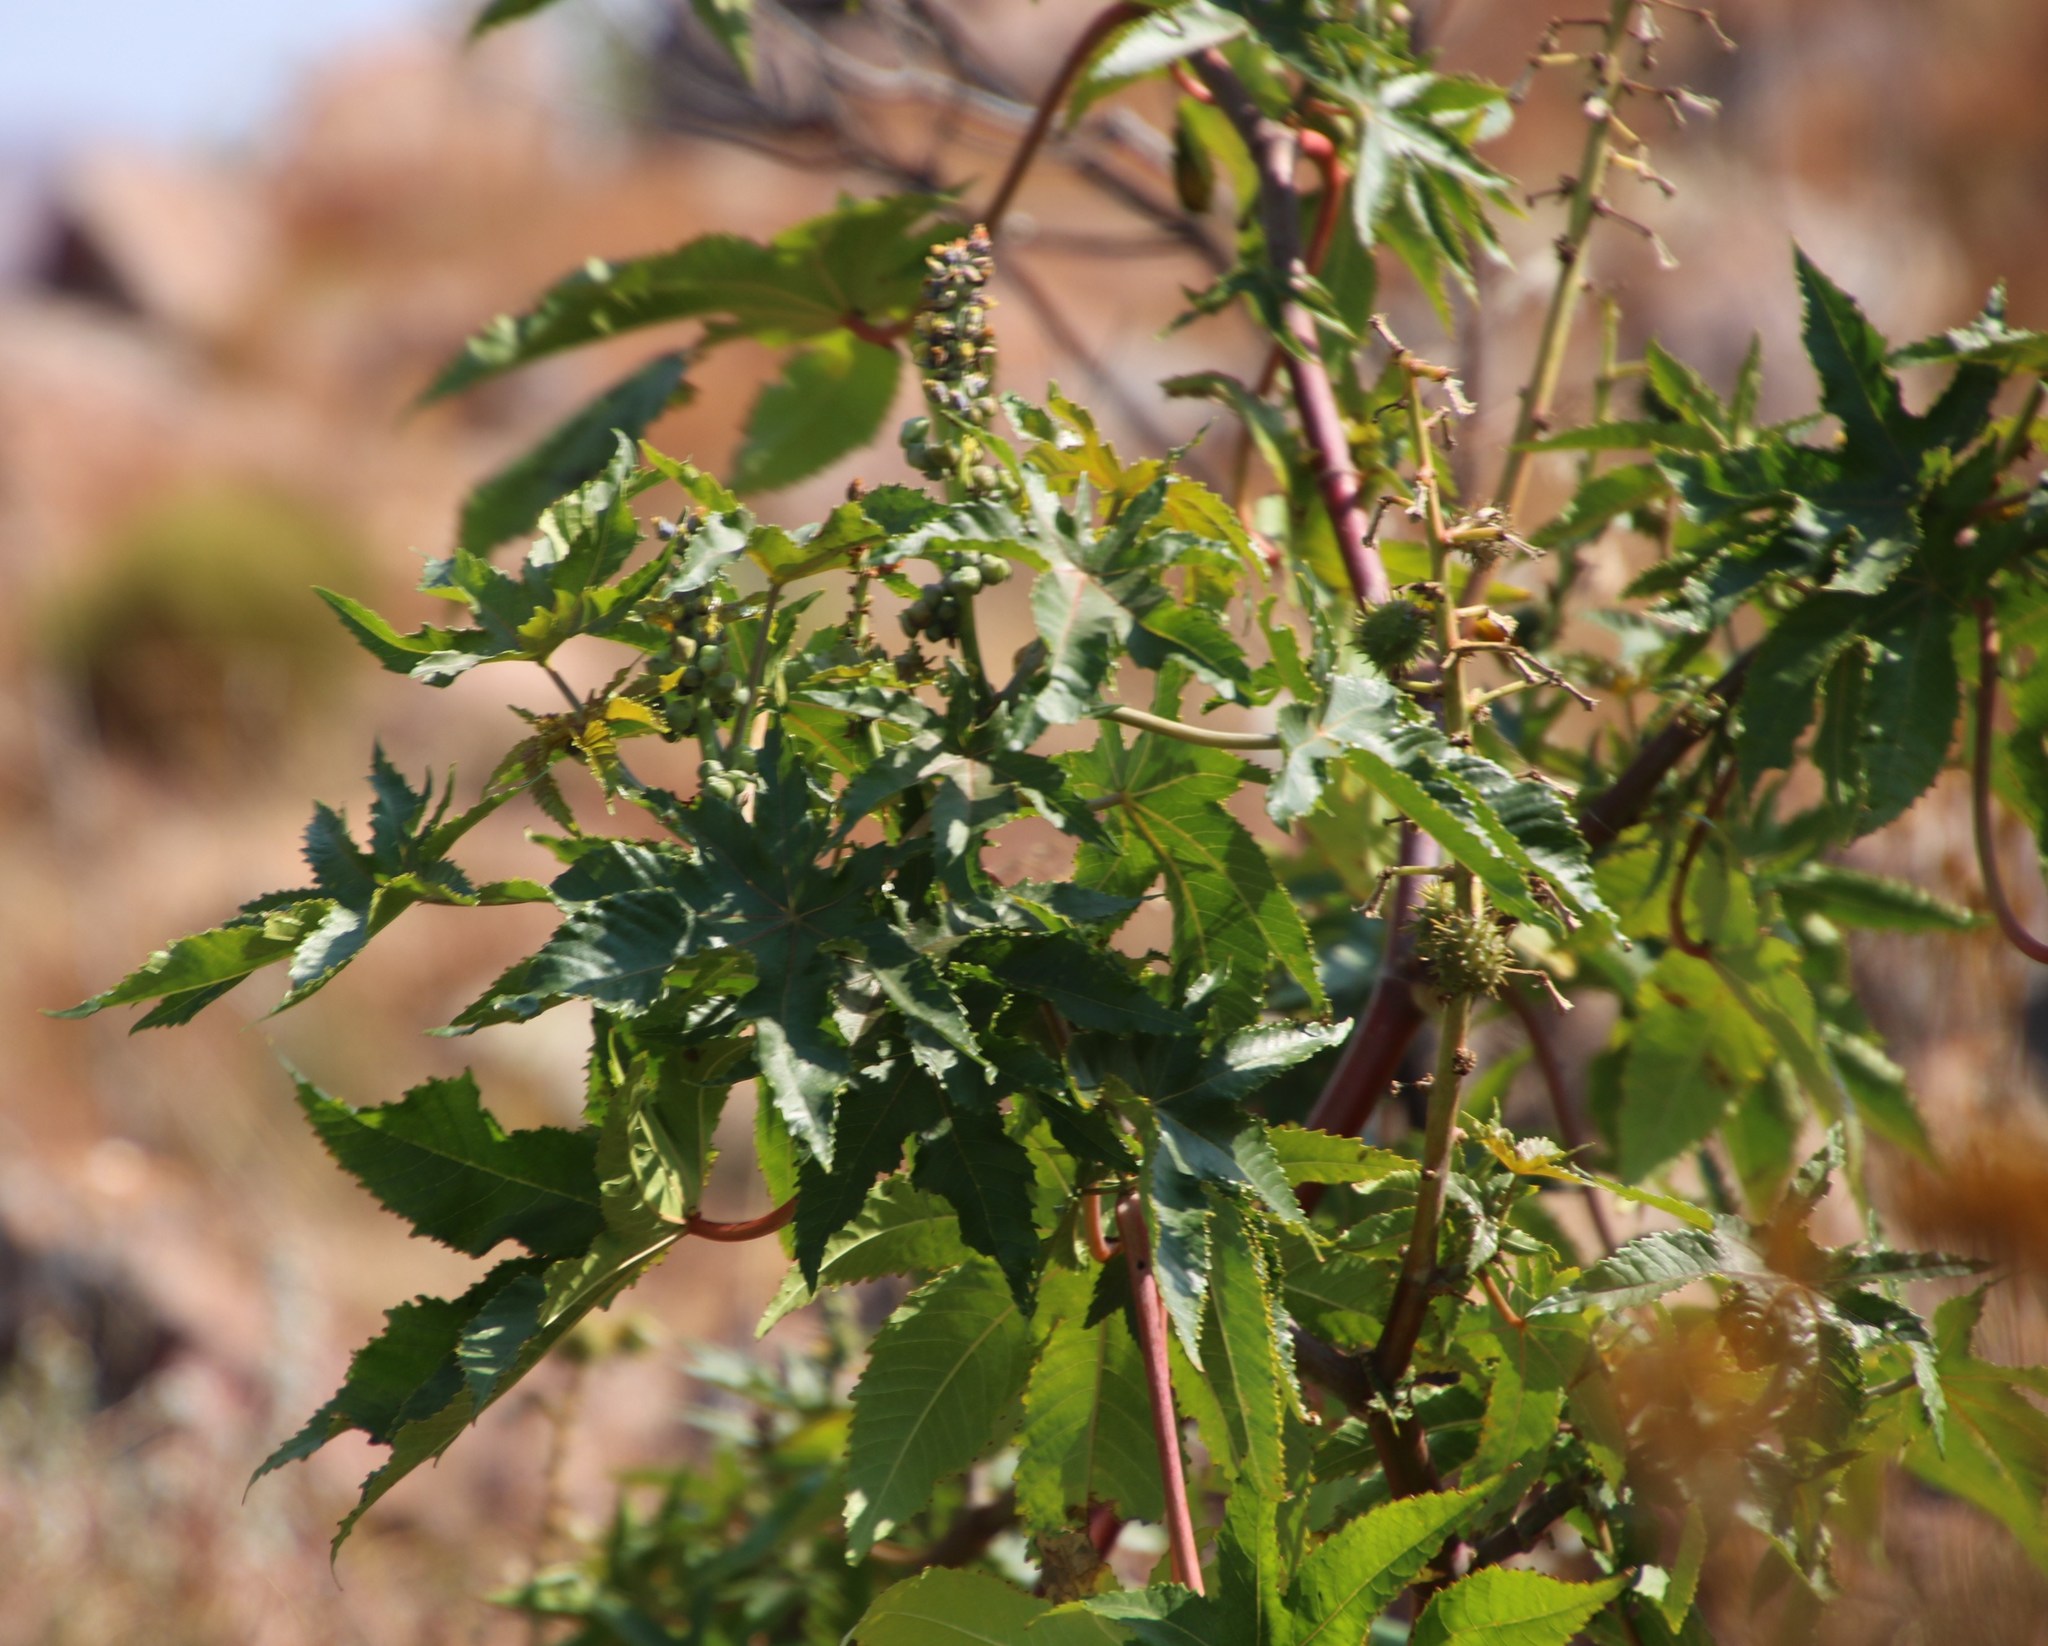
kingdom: Plantae
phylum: Tracheophyta
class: Magnoliopsida
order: Malpighiales
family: Euphorbiaceae
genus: Ricinus
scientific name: Ricinus communis
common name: Castor-oil-plant
